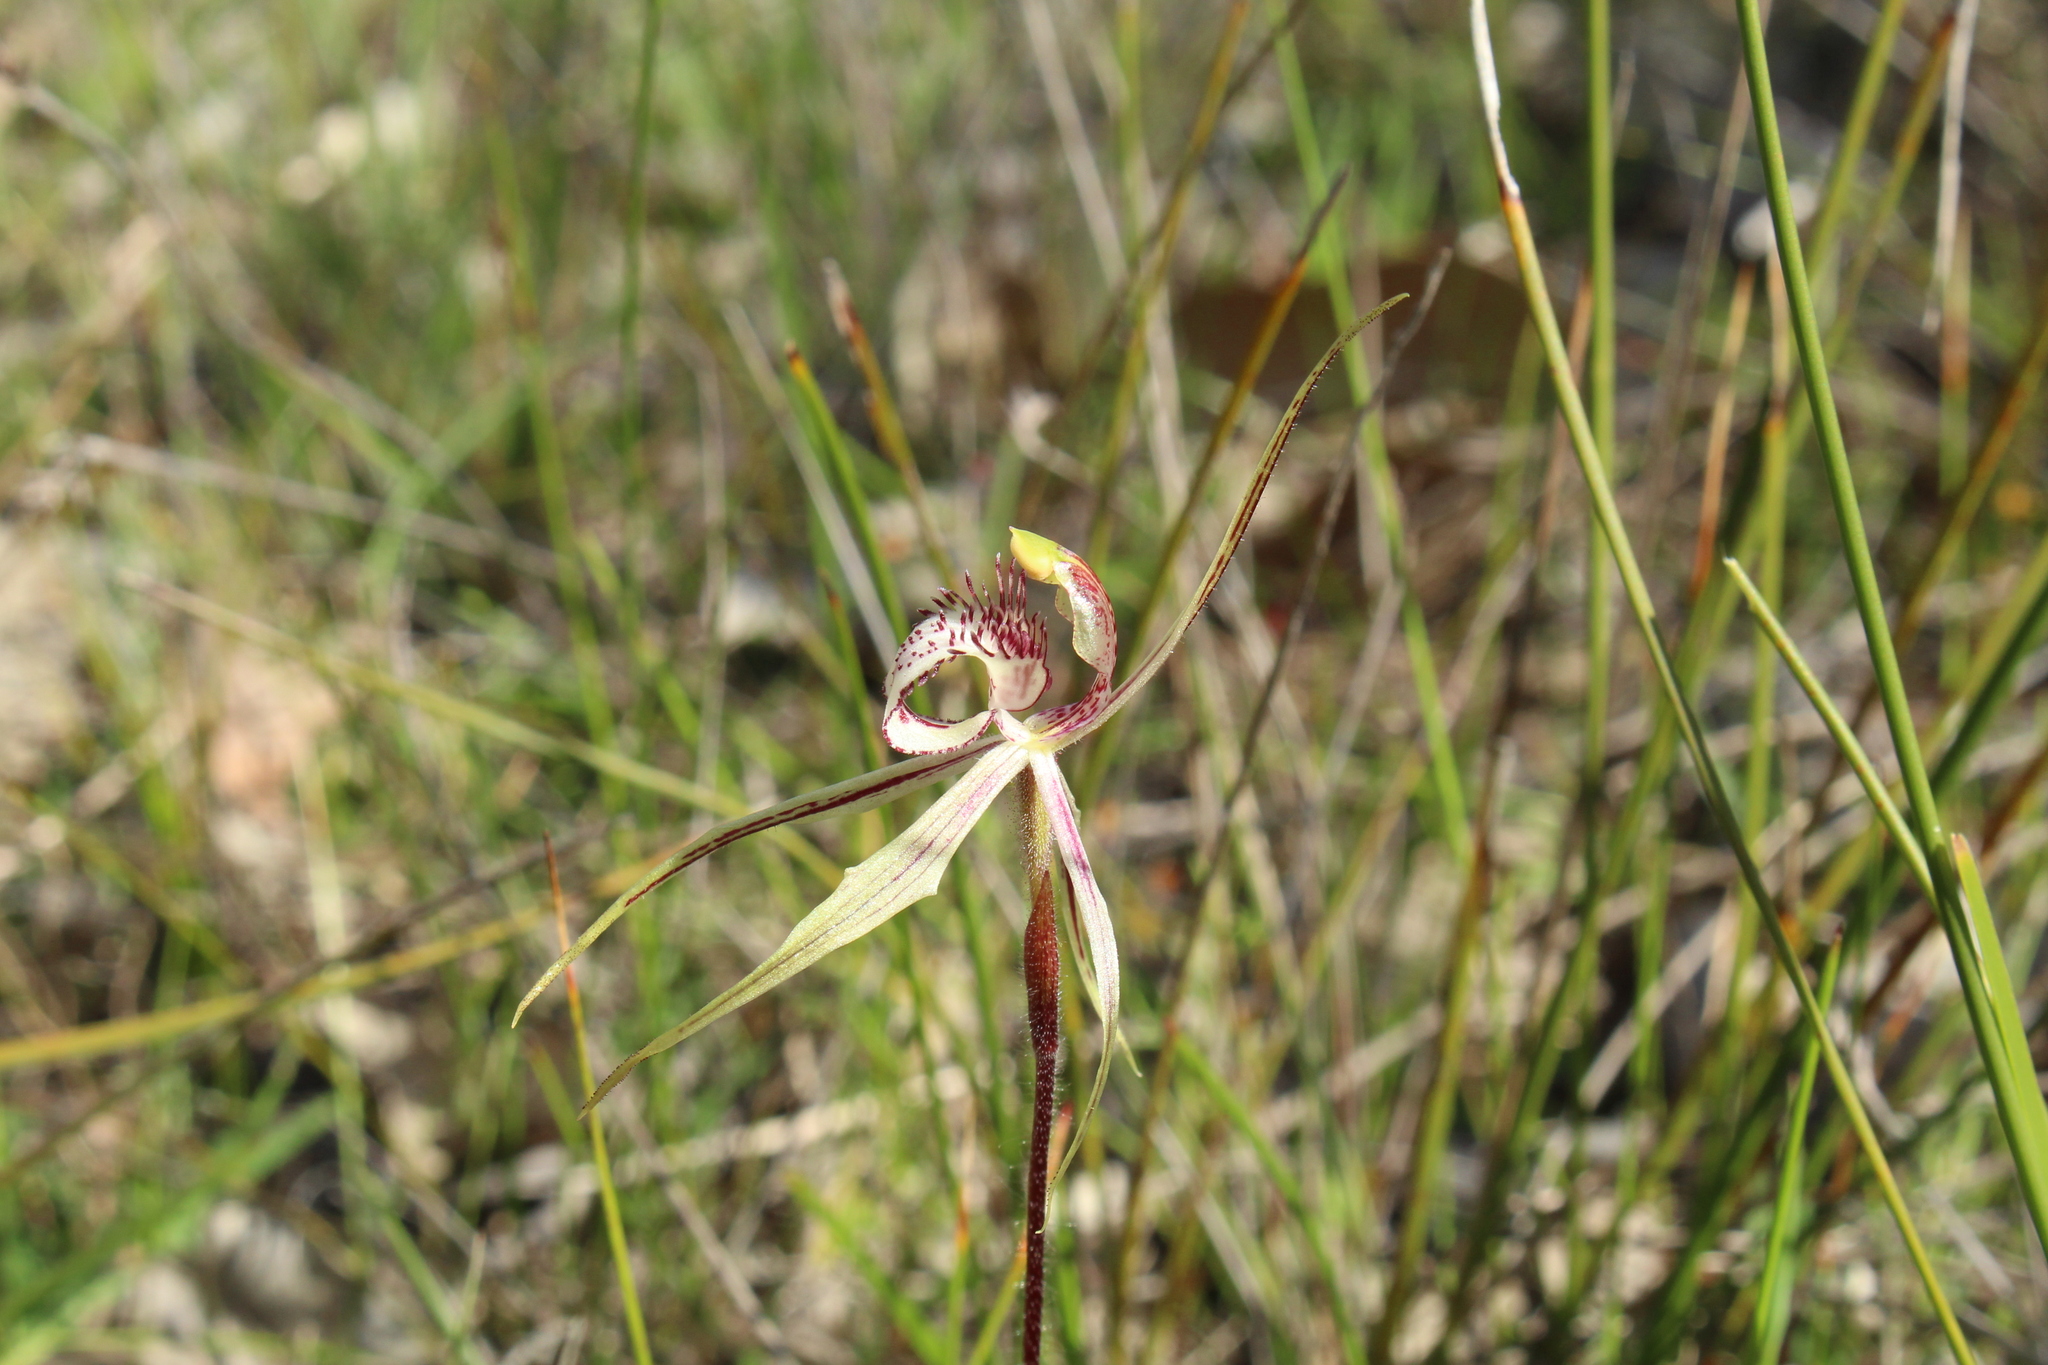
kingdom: Plantae
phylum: Tracheophyta
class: Liliopsida
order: Asparagales
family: Orchidaceae
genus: Caladenia
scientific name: Caladenia enigma
